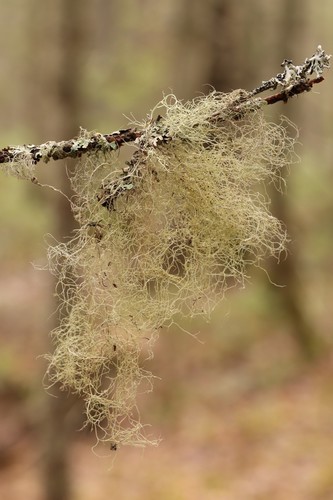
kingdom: Fungi
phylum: Ascomycota
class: Lecanoromycetes
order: Lecanorales
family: Parmeliaceae
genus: Bryoria
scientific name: Bryoria
